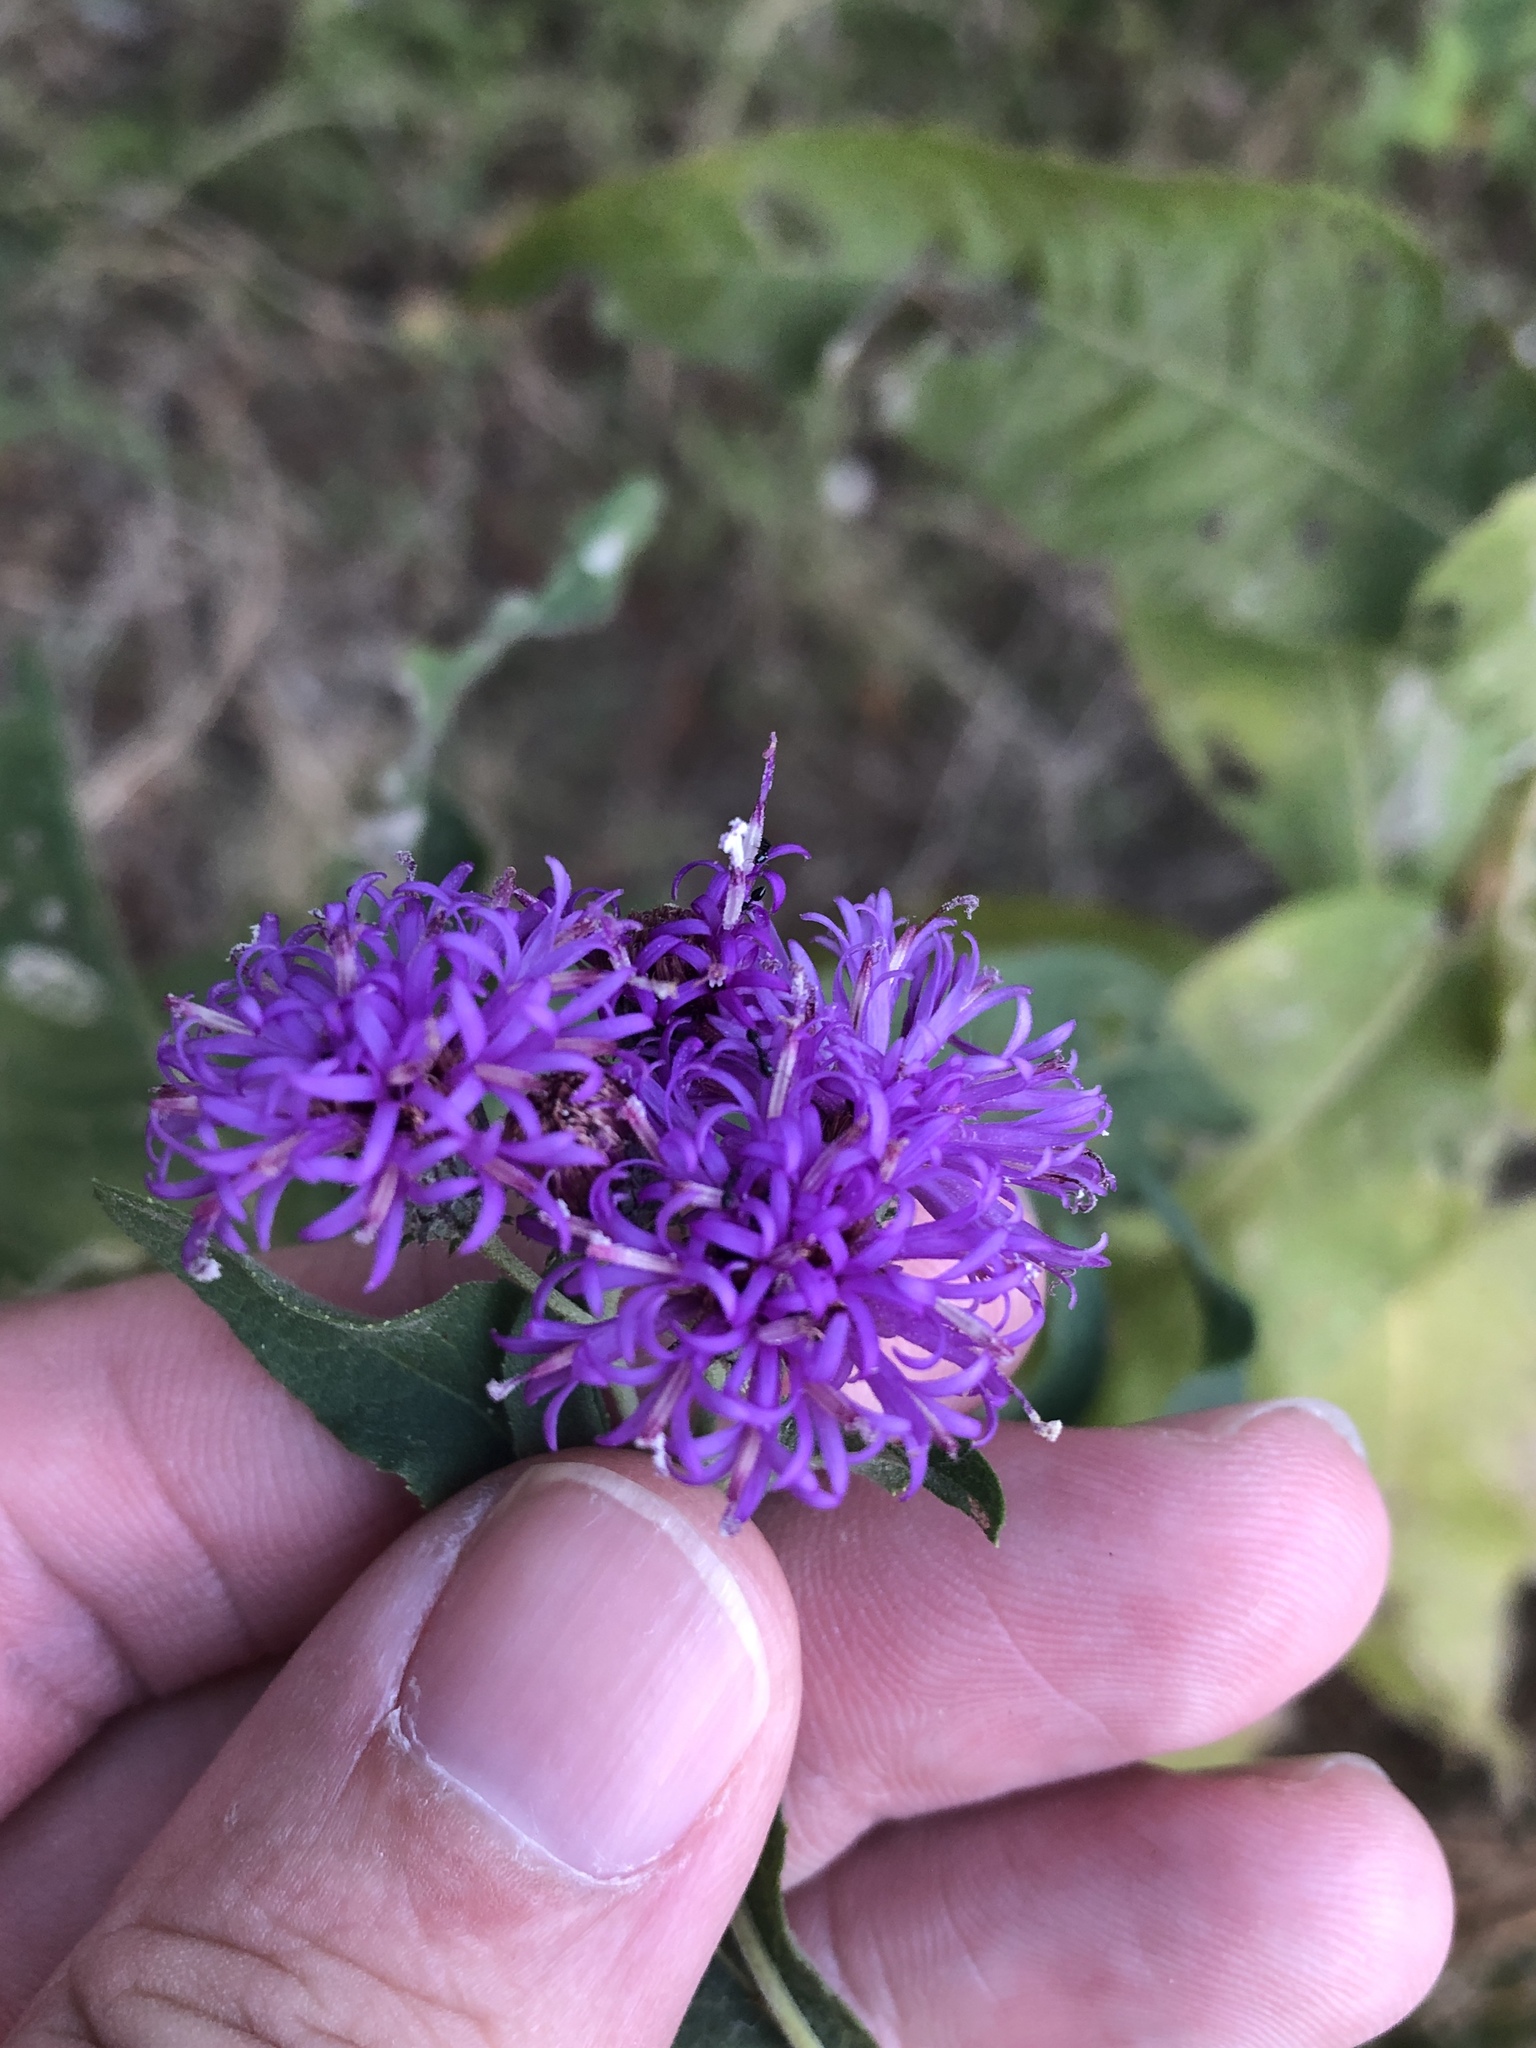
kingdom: Plantae
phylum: Tracheophyta
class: Magnoliopsida
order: Asterales
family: Asteraceae
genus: Vernonia
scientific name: Vernonia baldwinii
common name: Western ironweed
